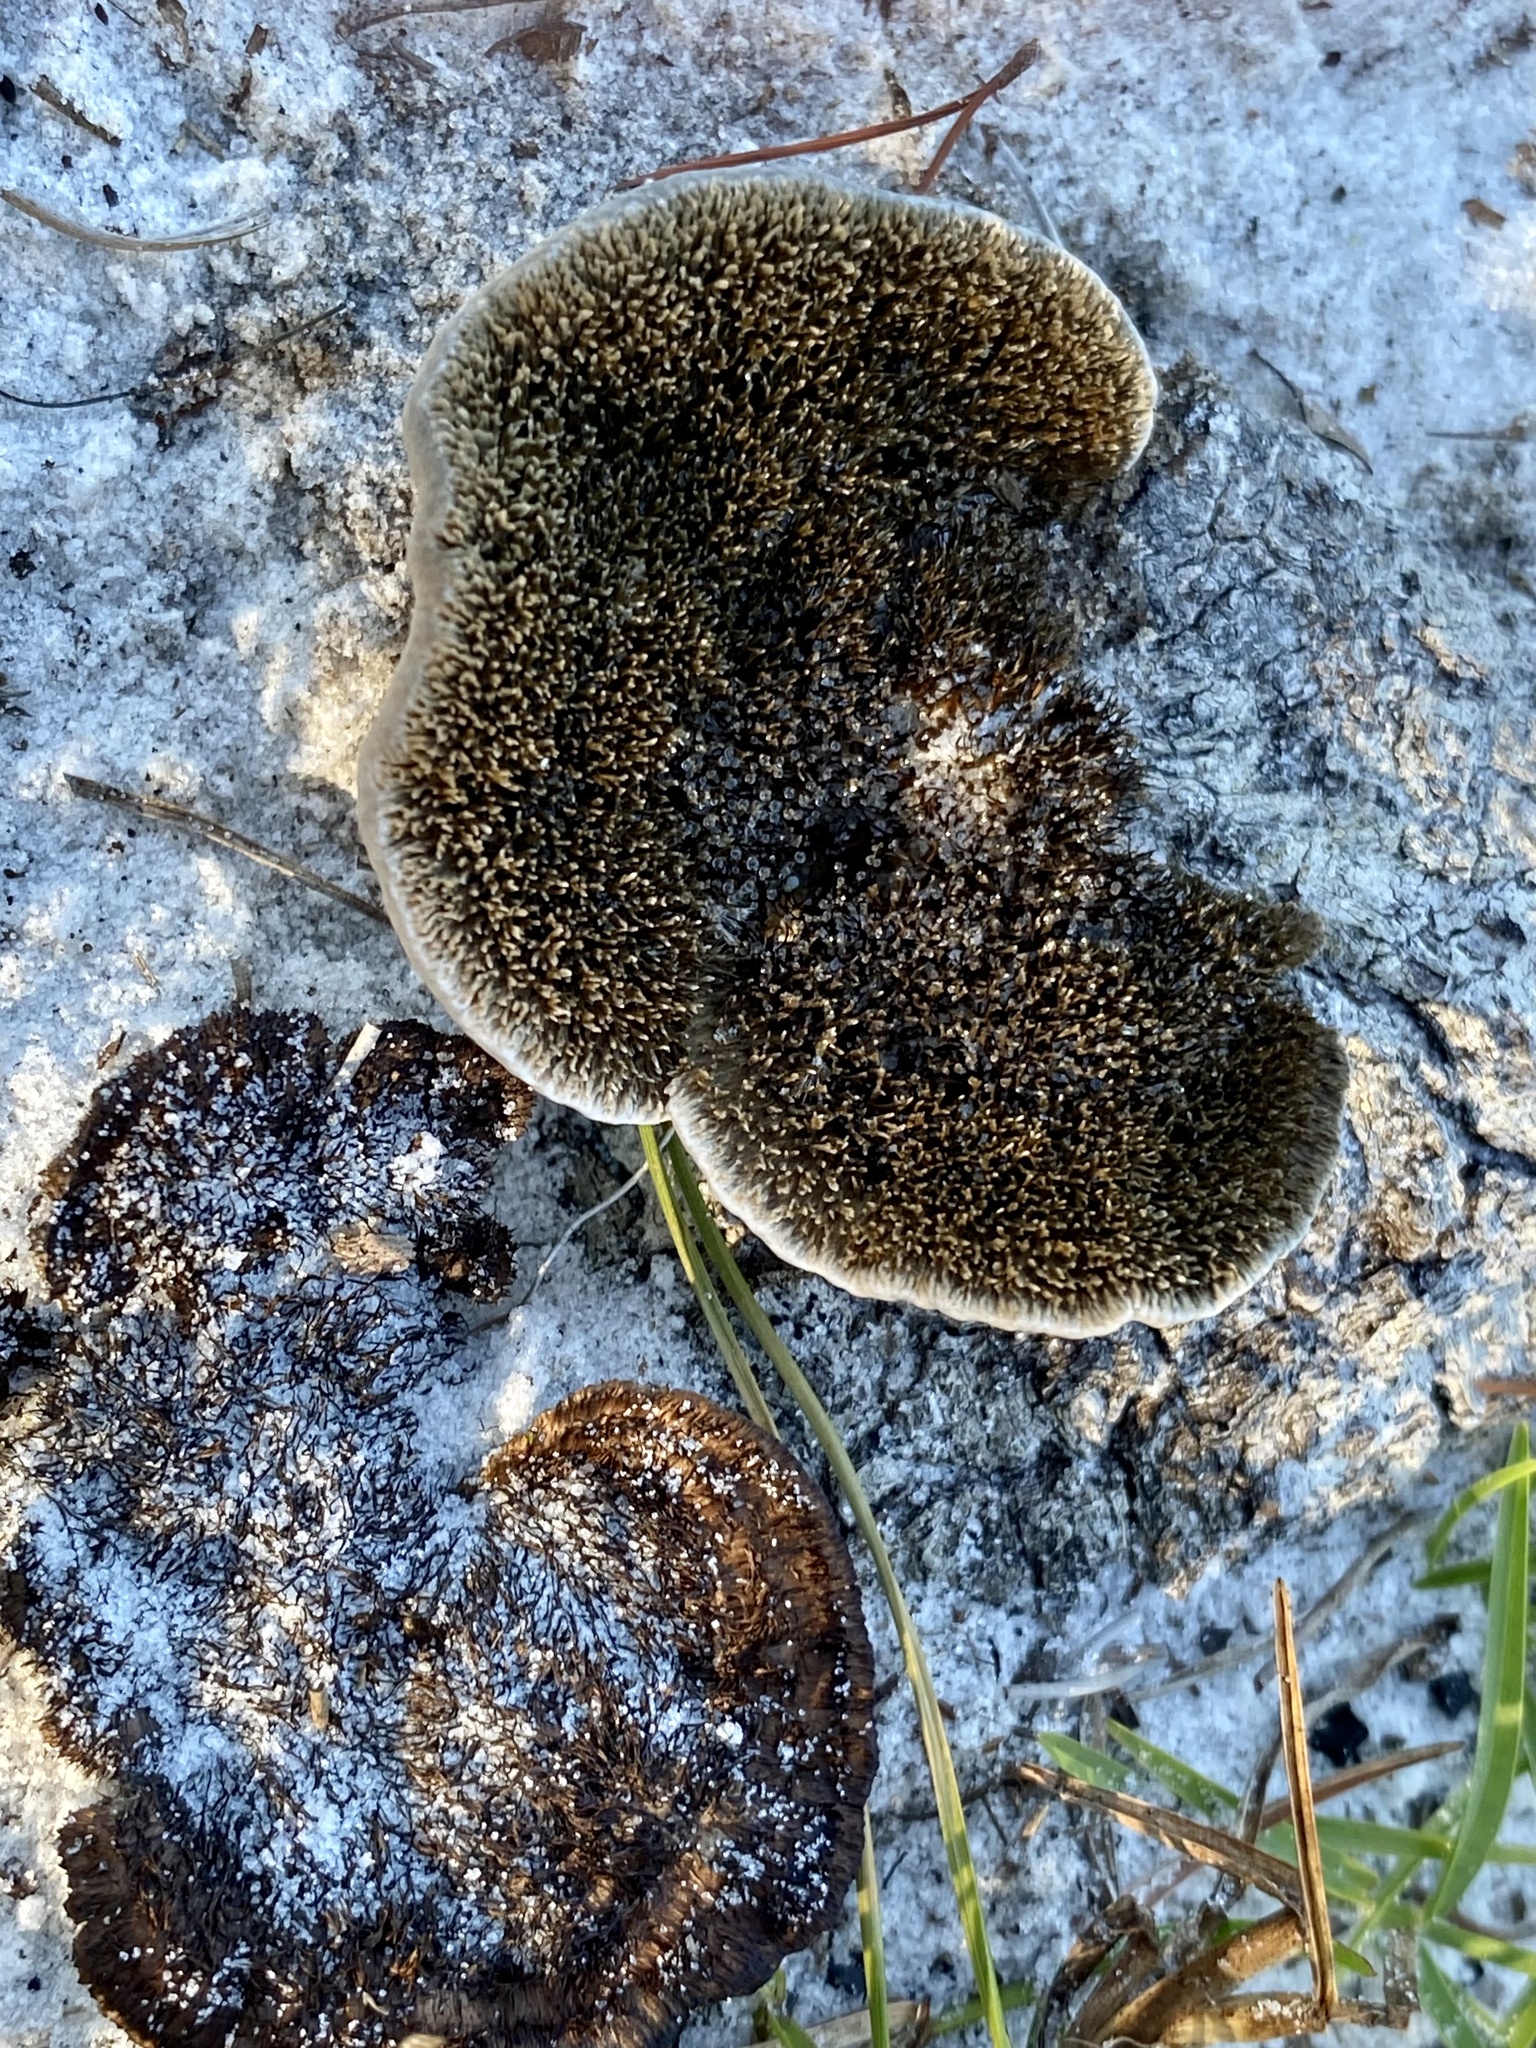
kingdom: Fungi
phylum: Basidiomycota
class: Agaricomycetes
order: Polyporales
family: Cerrenaceae
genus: Cerrena
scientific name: Cerrena hydnoides
